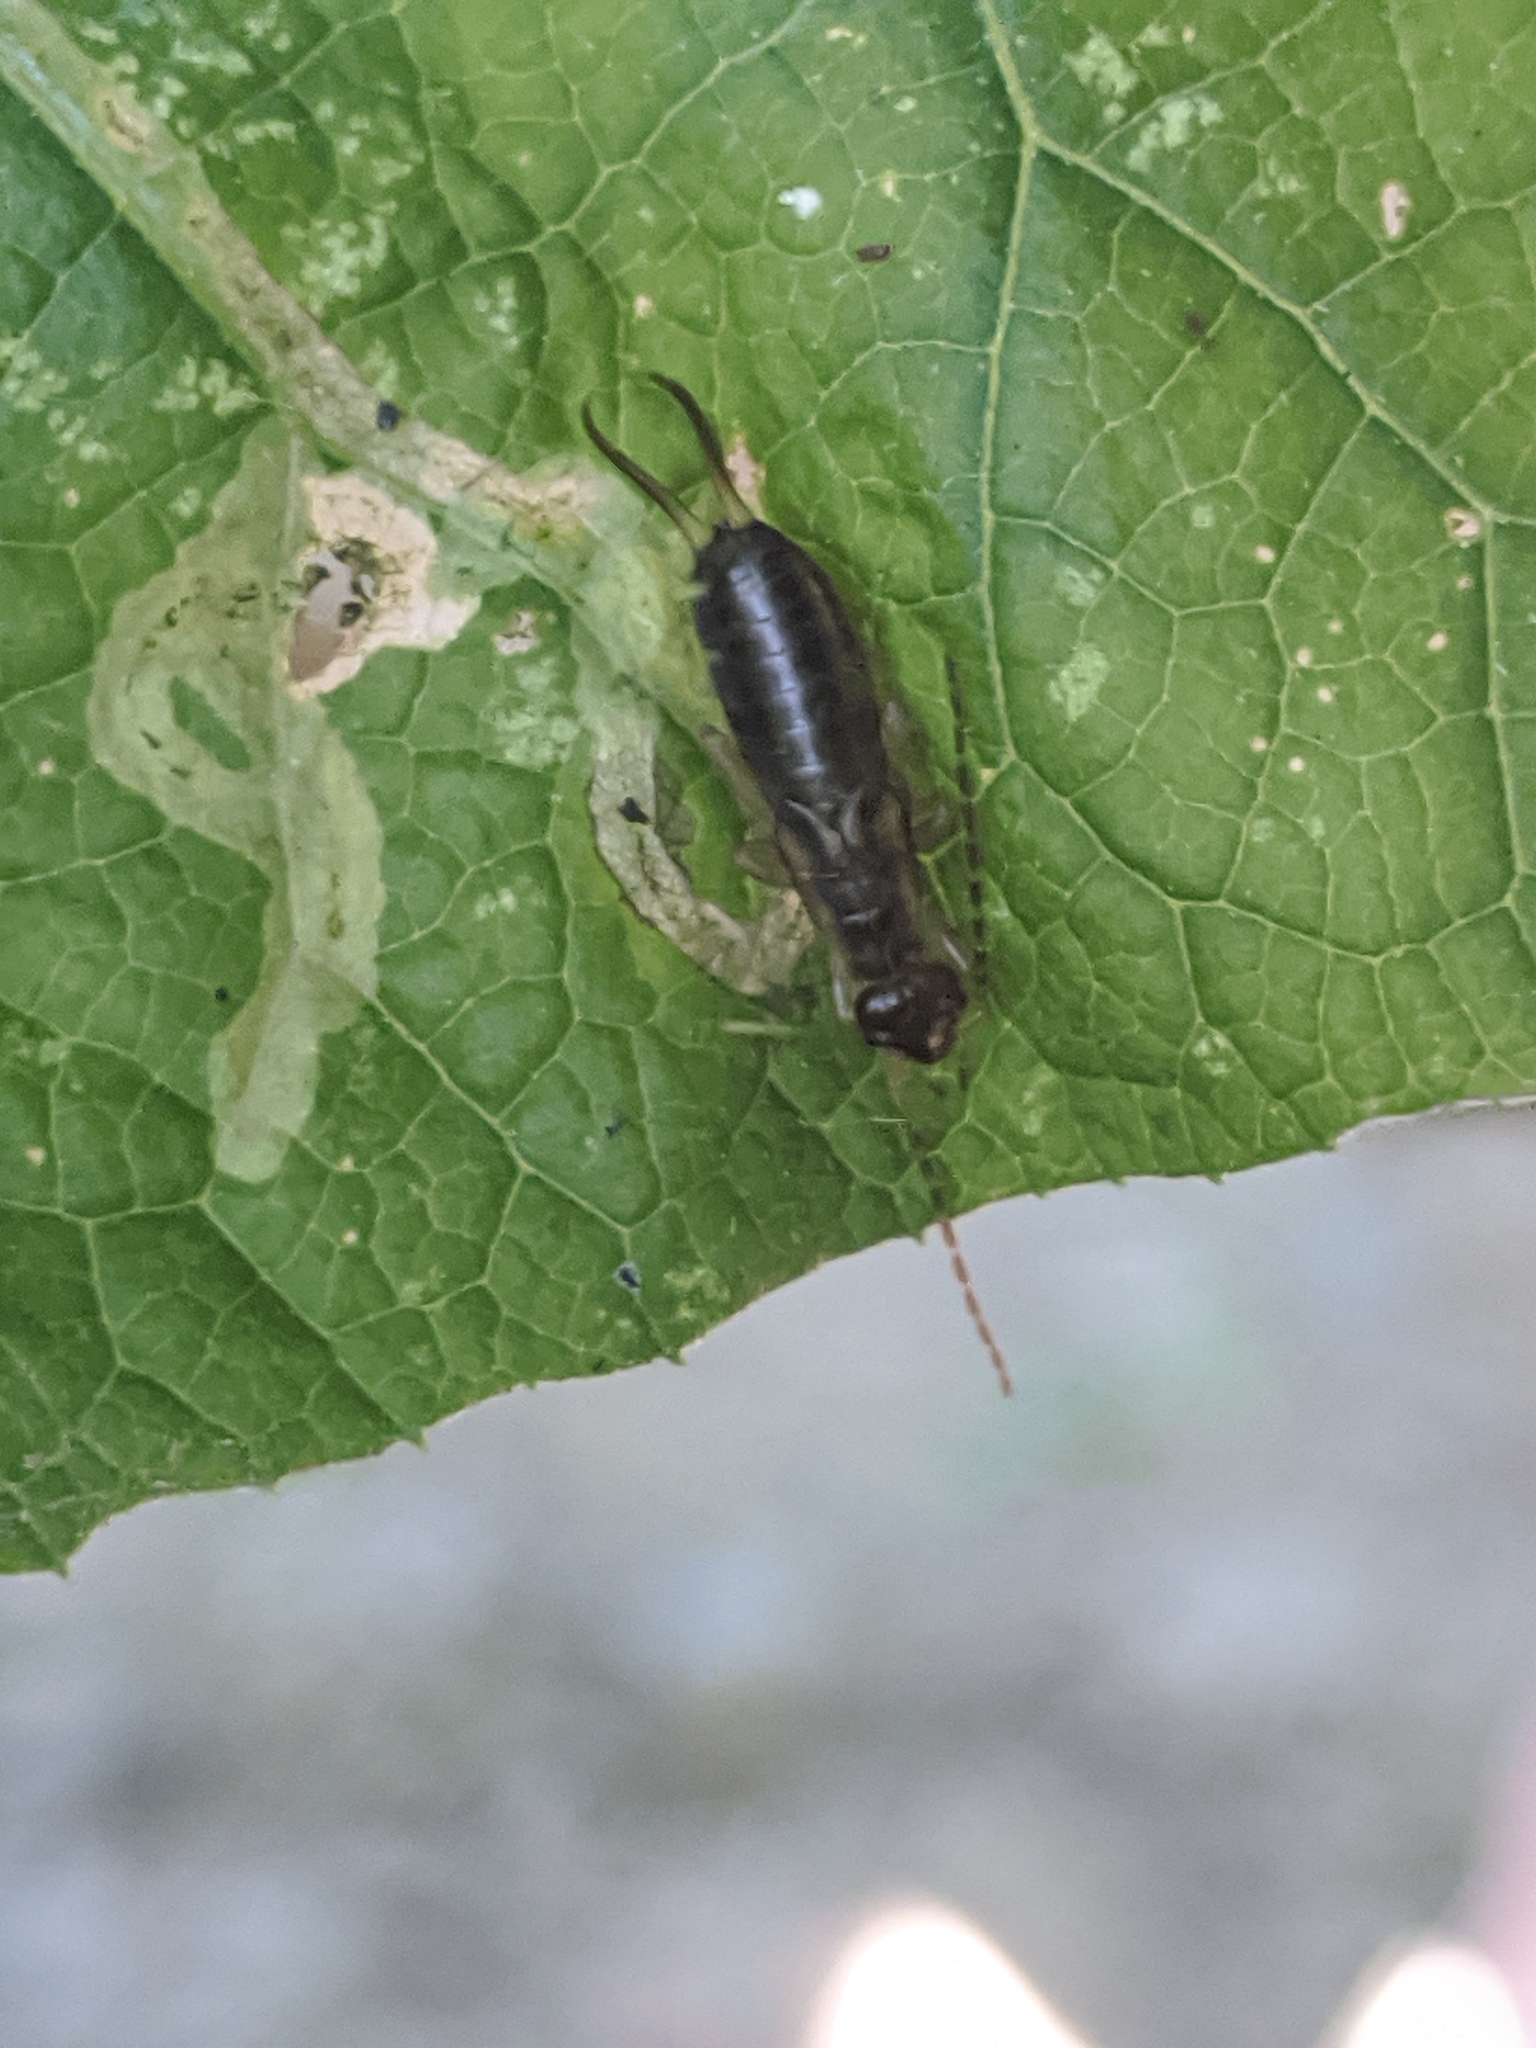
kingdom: Animalia
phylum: Arthropoda
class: Insecta
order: Dermaptera
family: Forficulidae
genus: Forficula
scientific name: Forficula
